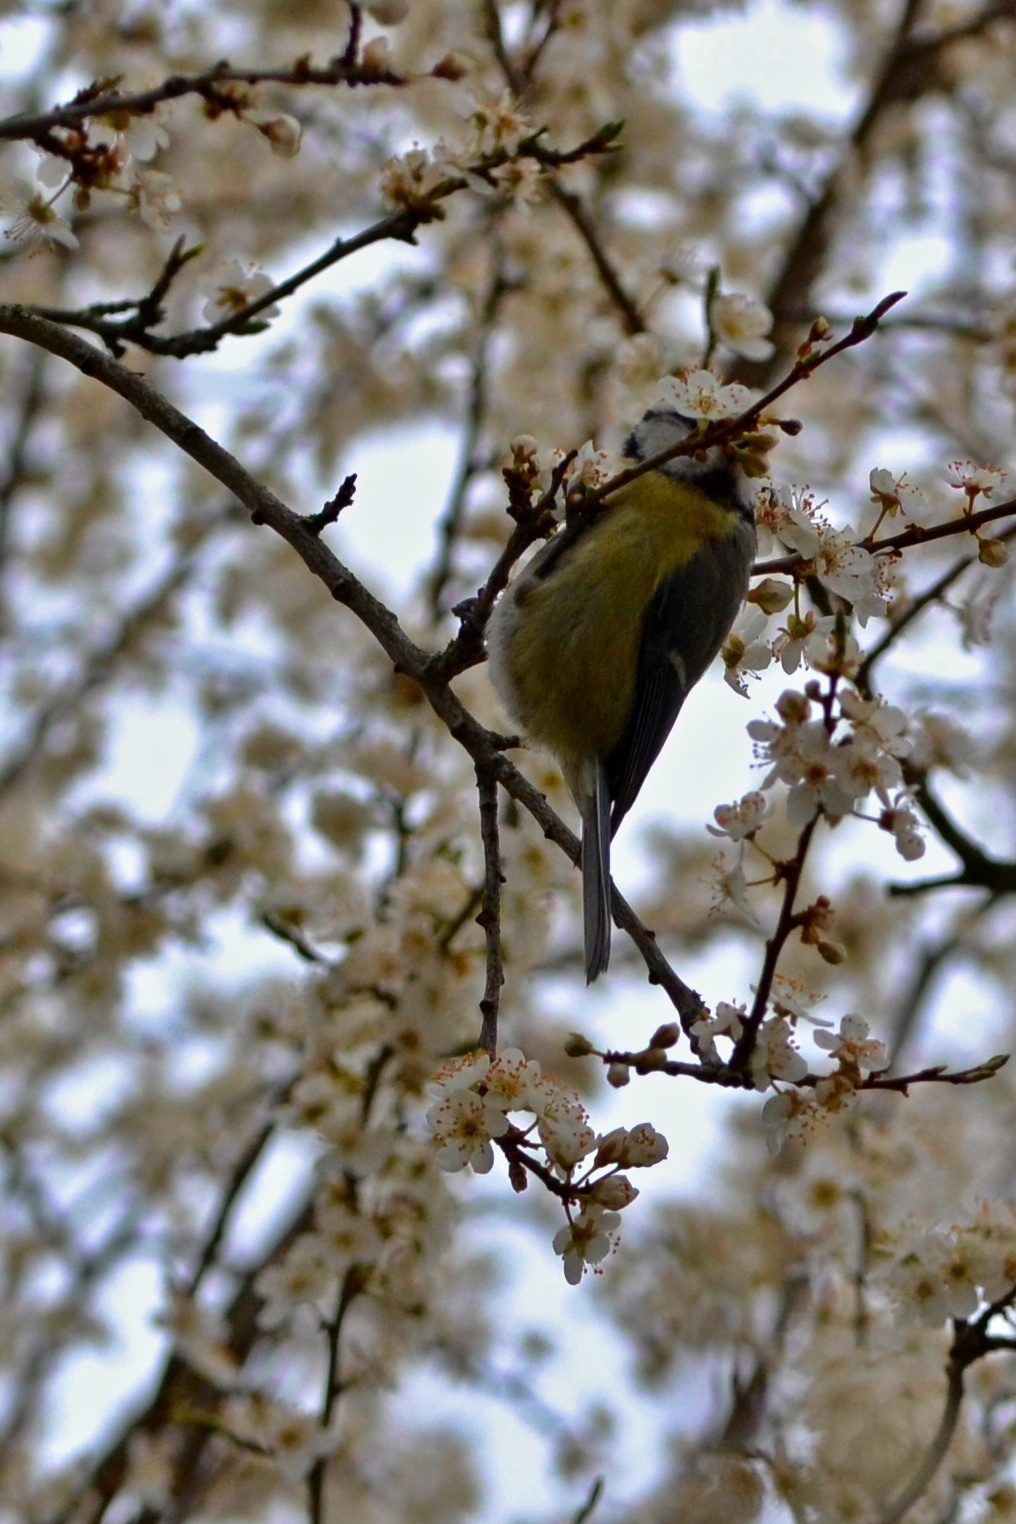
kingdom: Animalia
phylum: Chordata
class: Aves
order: Passeriformes
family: Paridae
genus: Cyanistes
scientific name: Cyanistes caeruleus
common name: Eurasian blue tit
